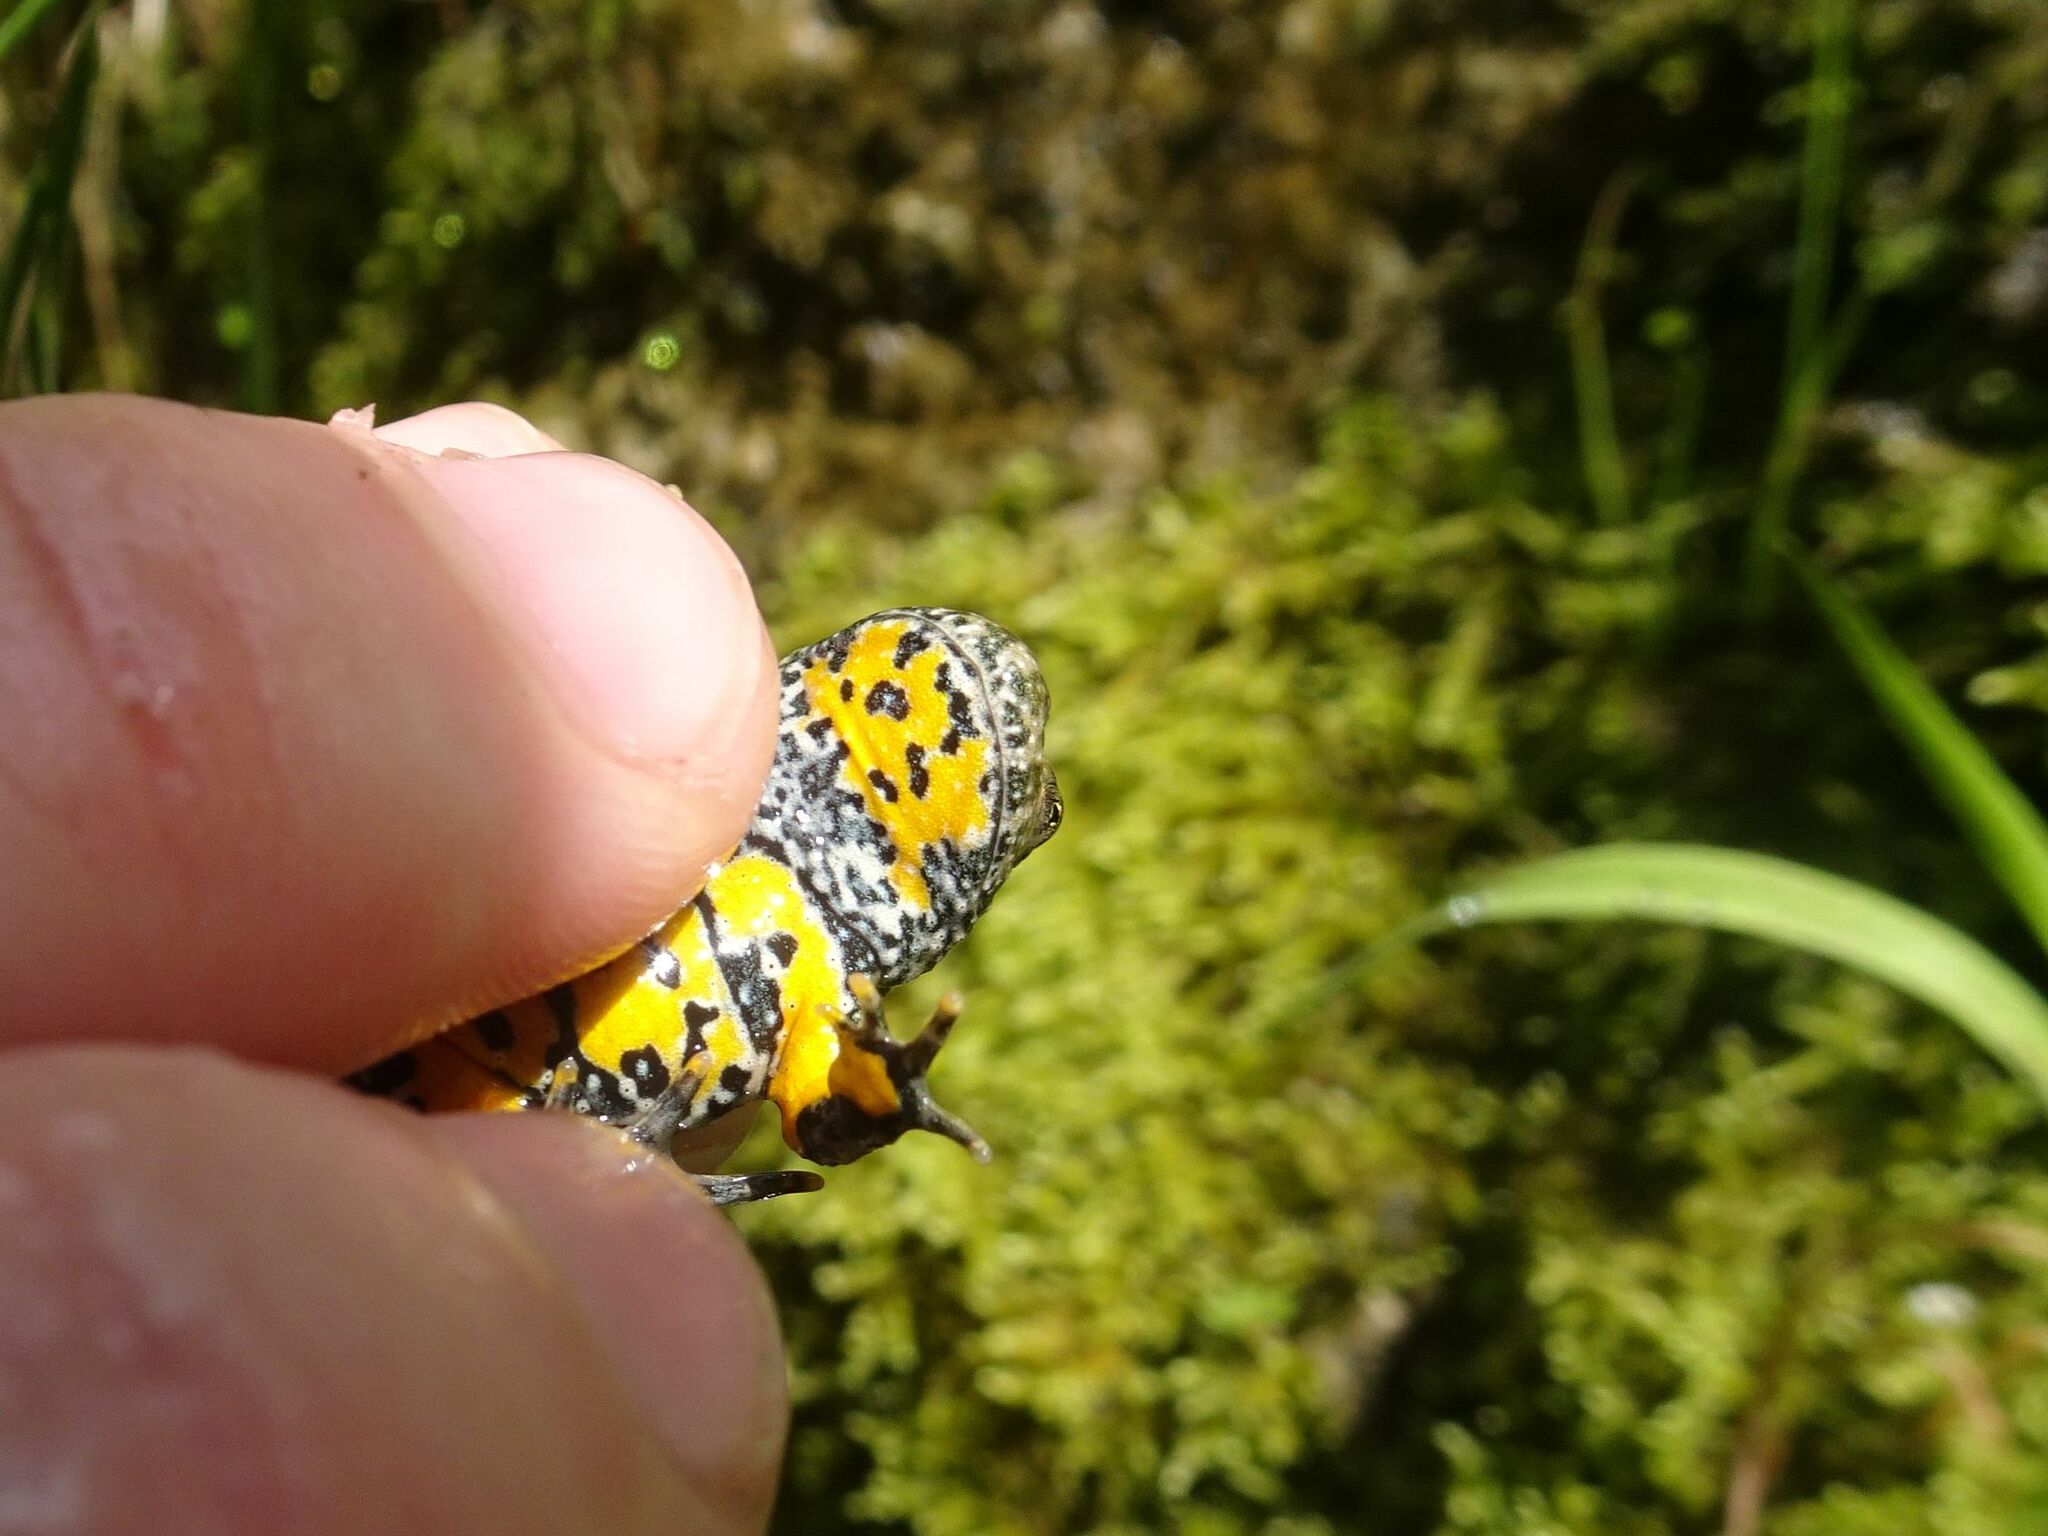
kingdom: Animalia
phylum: Chordata
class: Amphibia
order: Anura
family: Bombinatoridae
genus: Bombina
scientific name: Bombina variegata
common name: Yellow-bellied toad
